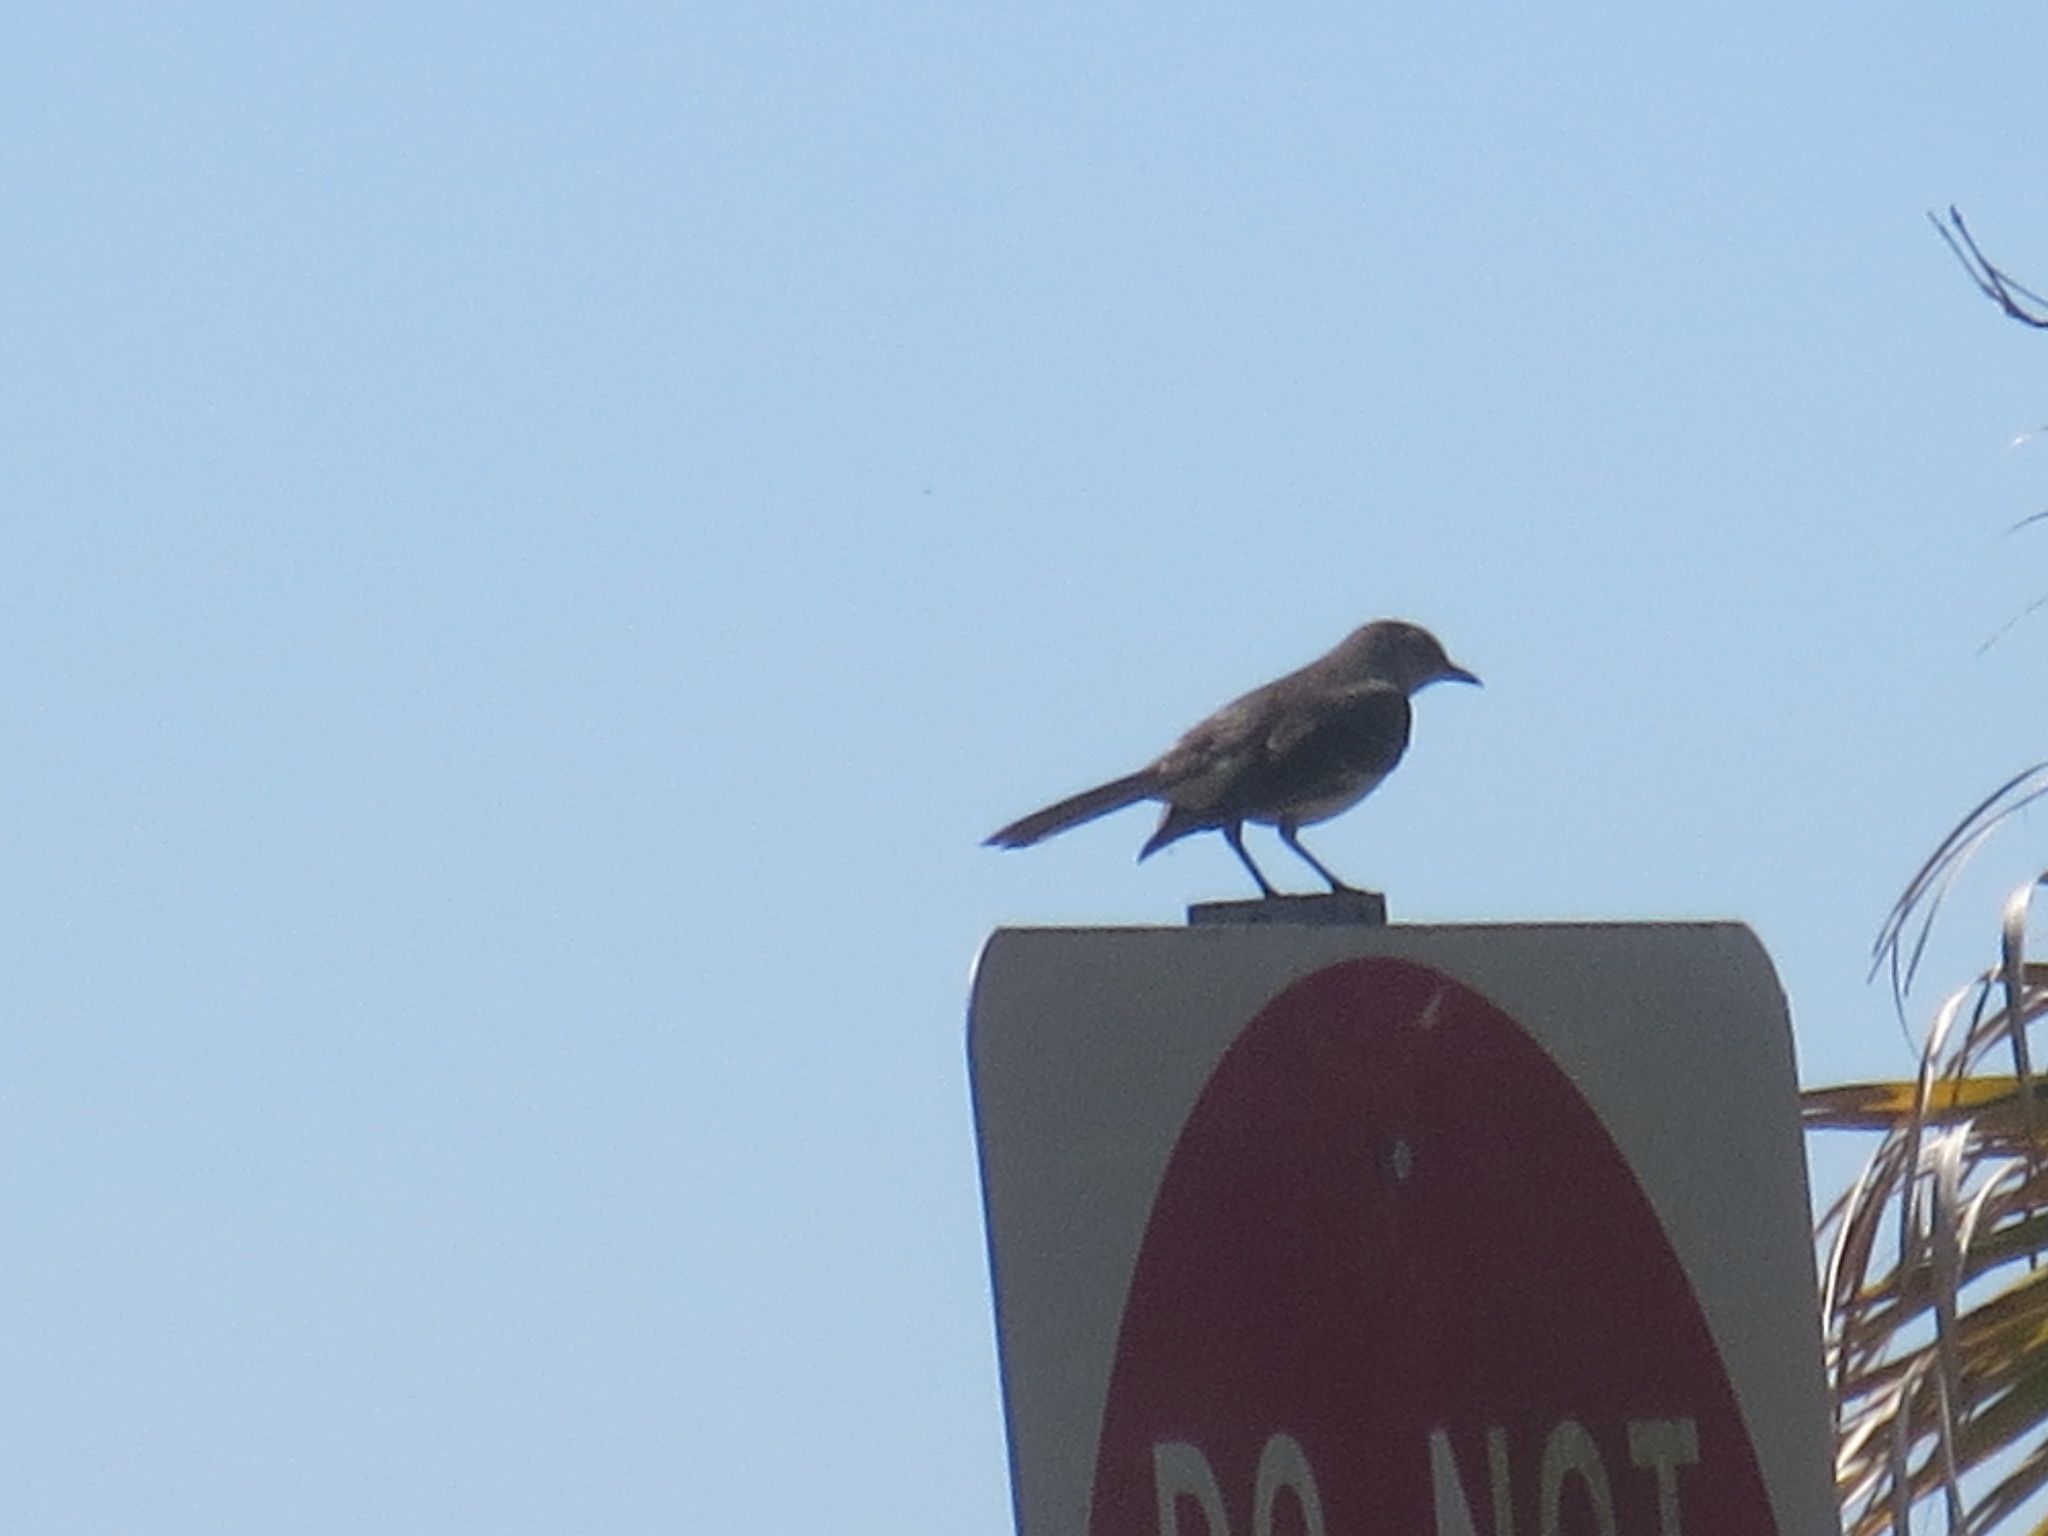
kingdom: Animalia
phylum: Chordata
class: Aves
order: Passeriformes
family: Mimidae
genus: Mimus
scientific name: Mimus polyglottos
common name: Northern mockingbird
